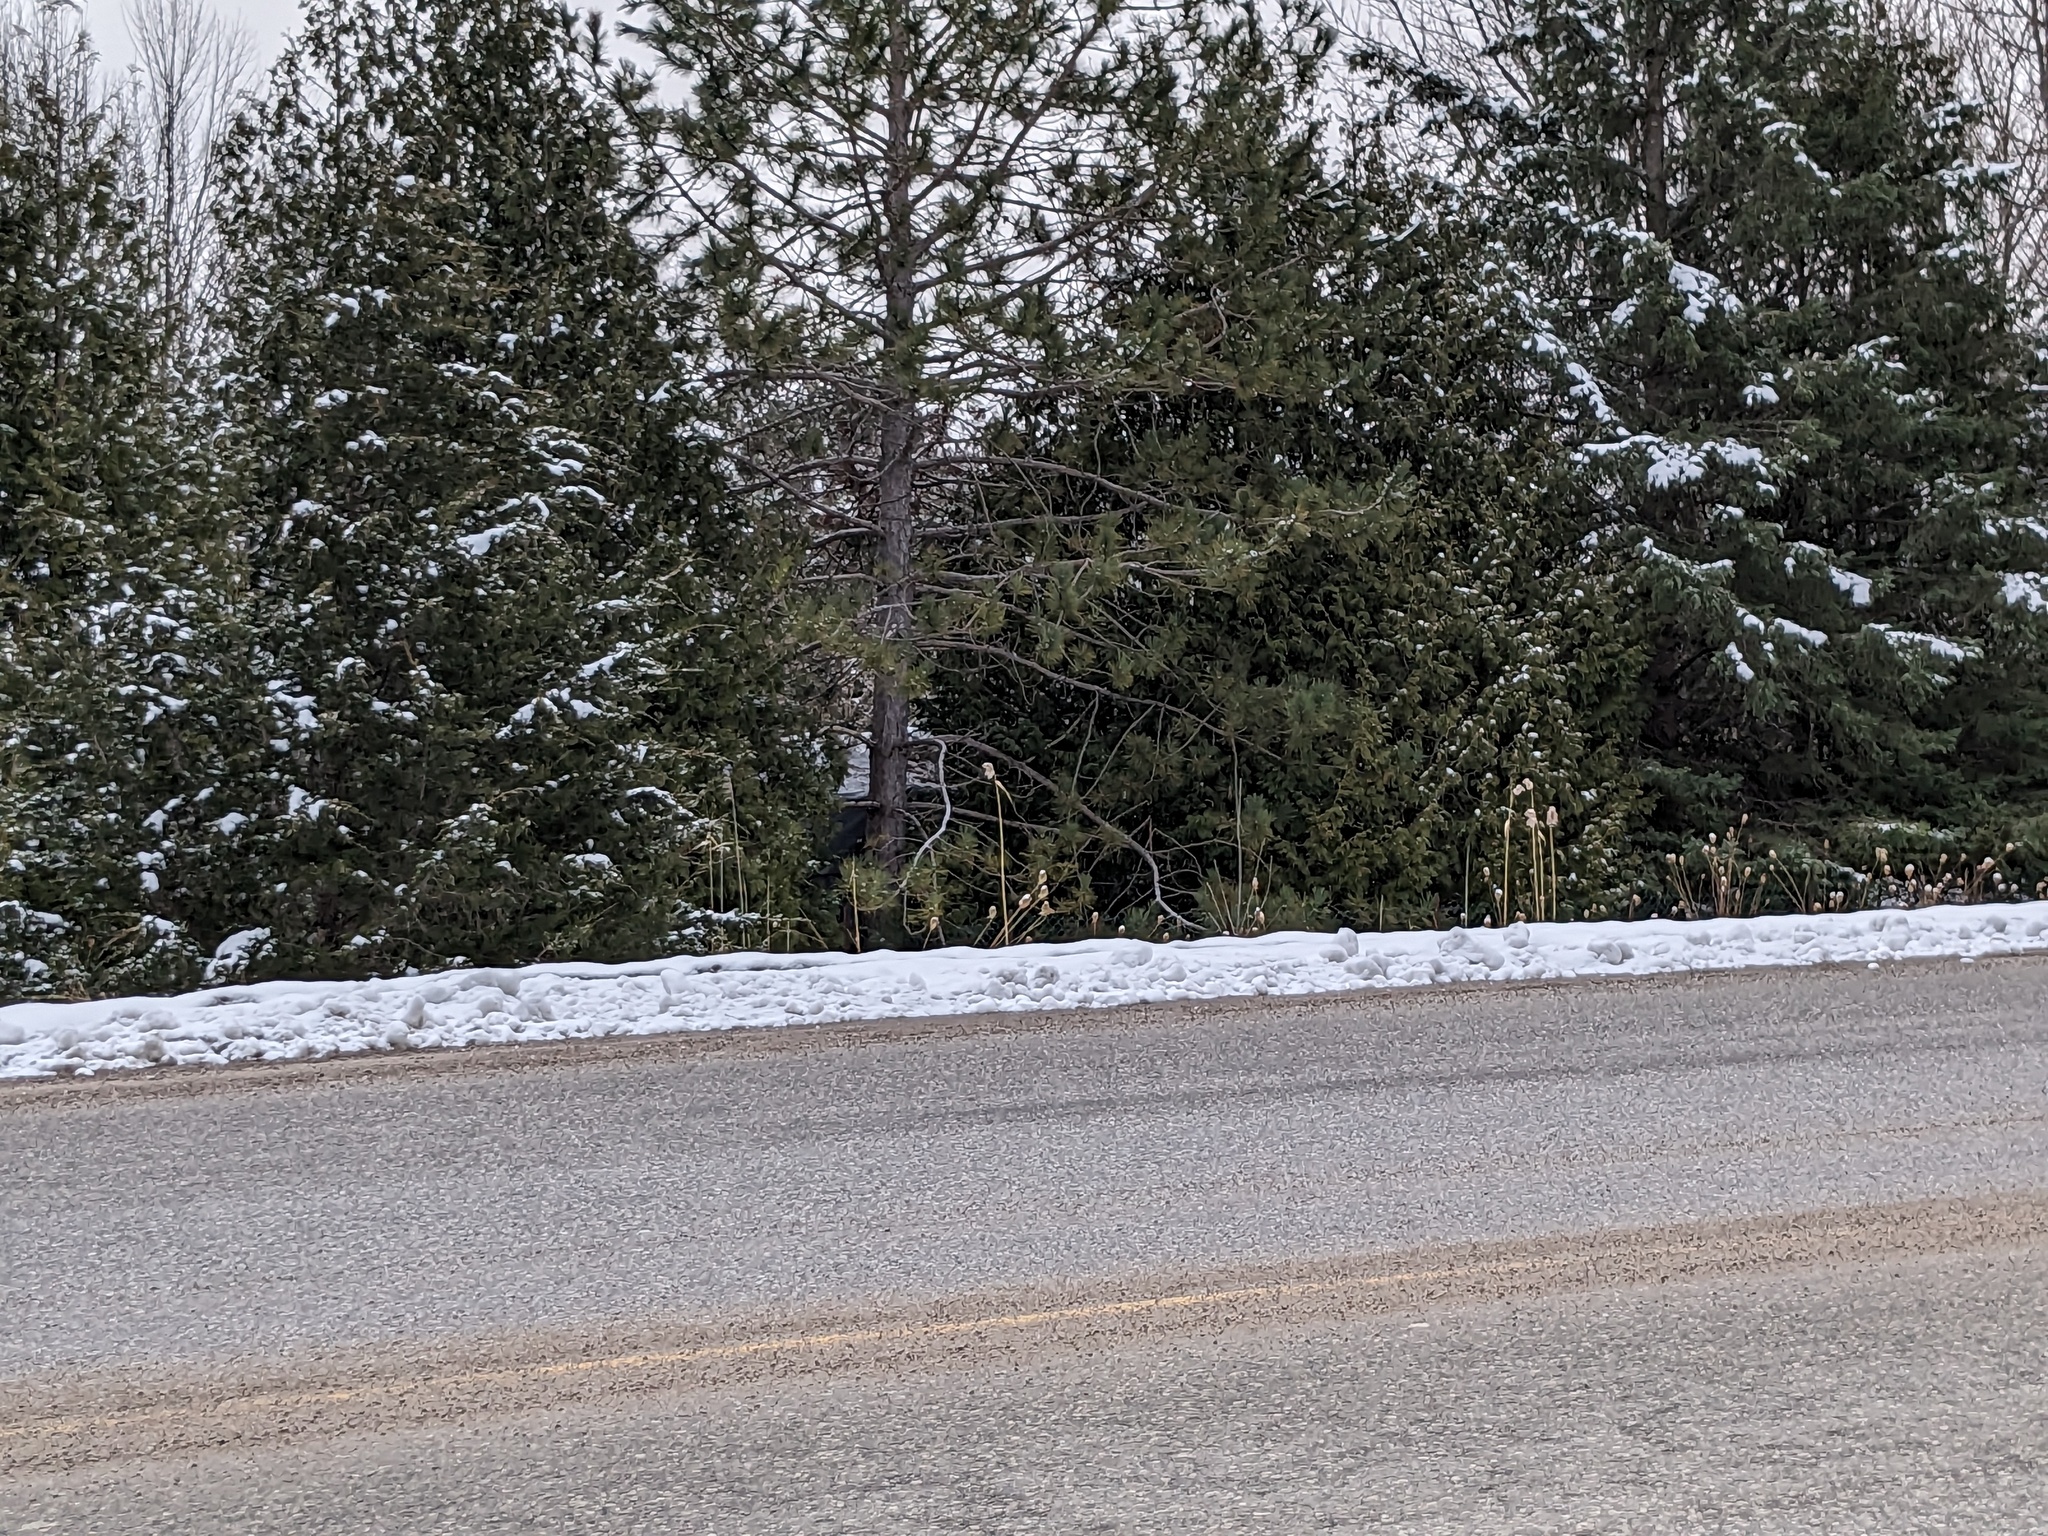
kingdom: Plantae
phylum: Tracheophyta
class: Liliopsida
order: Poales
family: Poaceae
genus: Phragmites
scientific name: Phragmites australis
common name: Common reed
